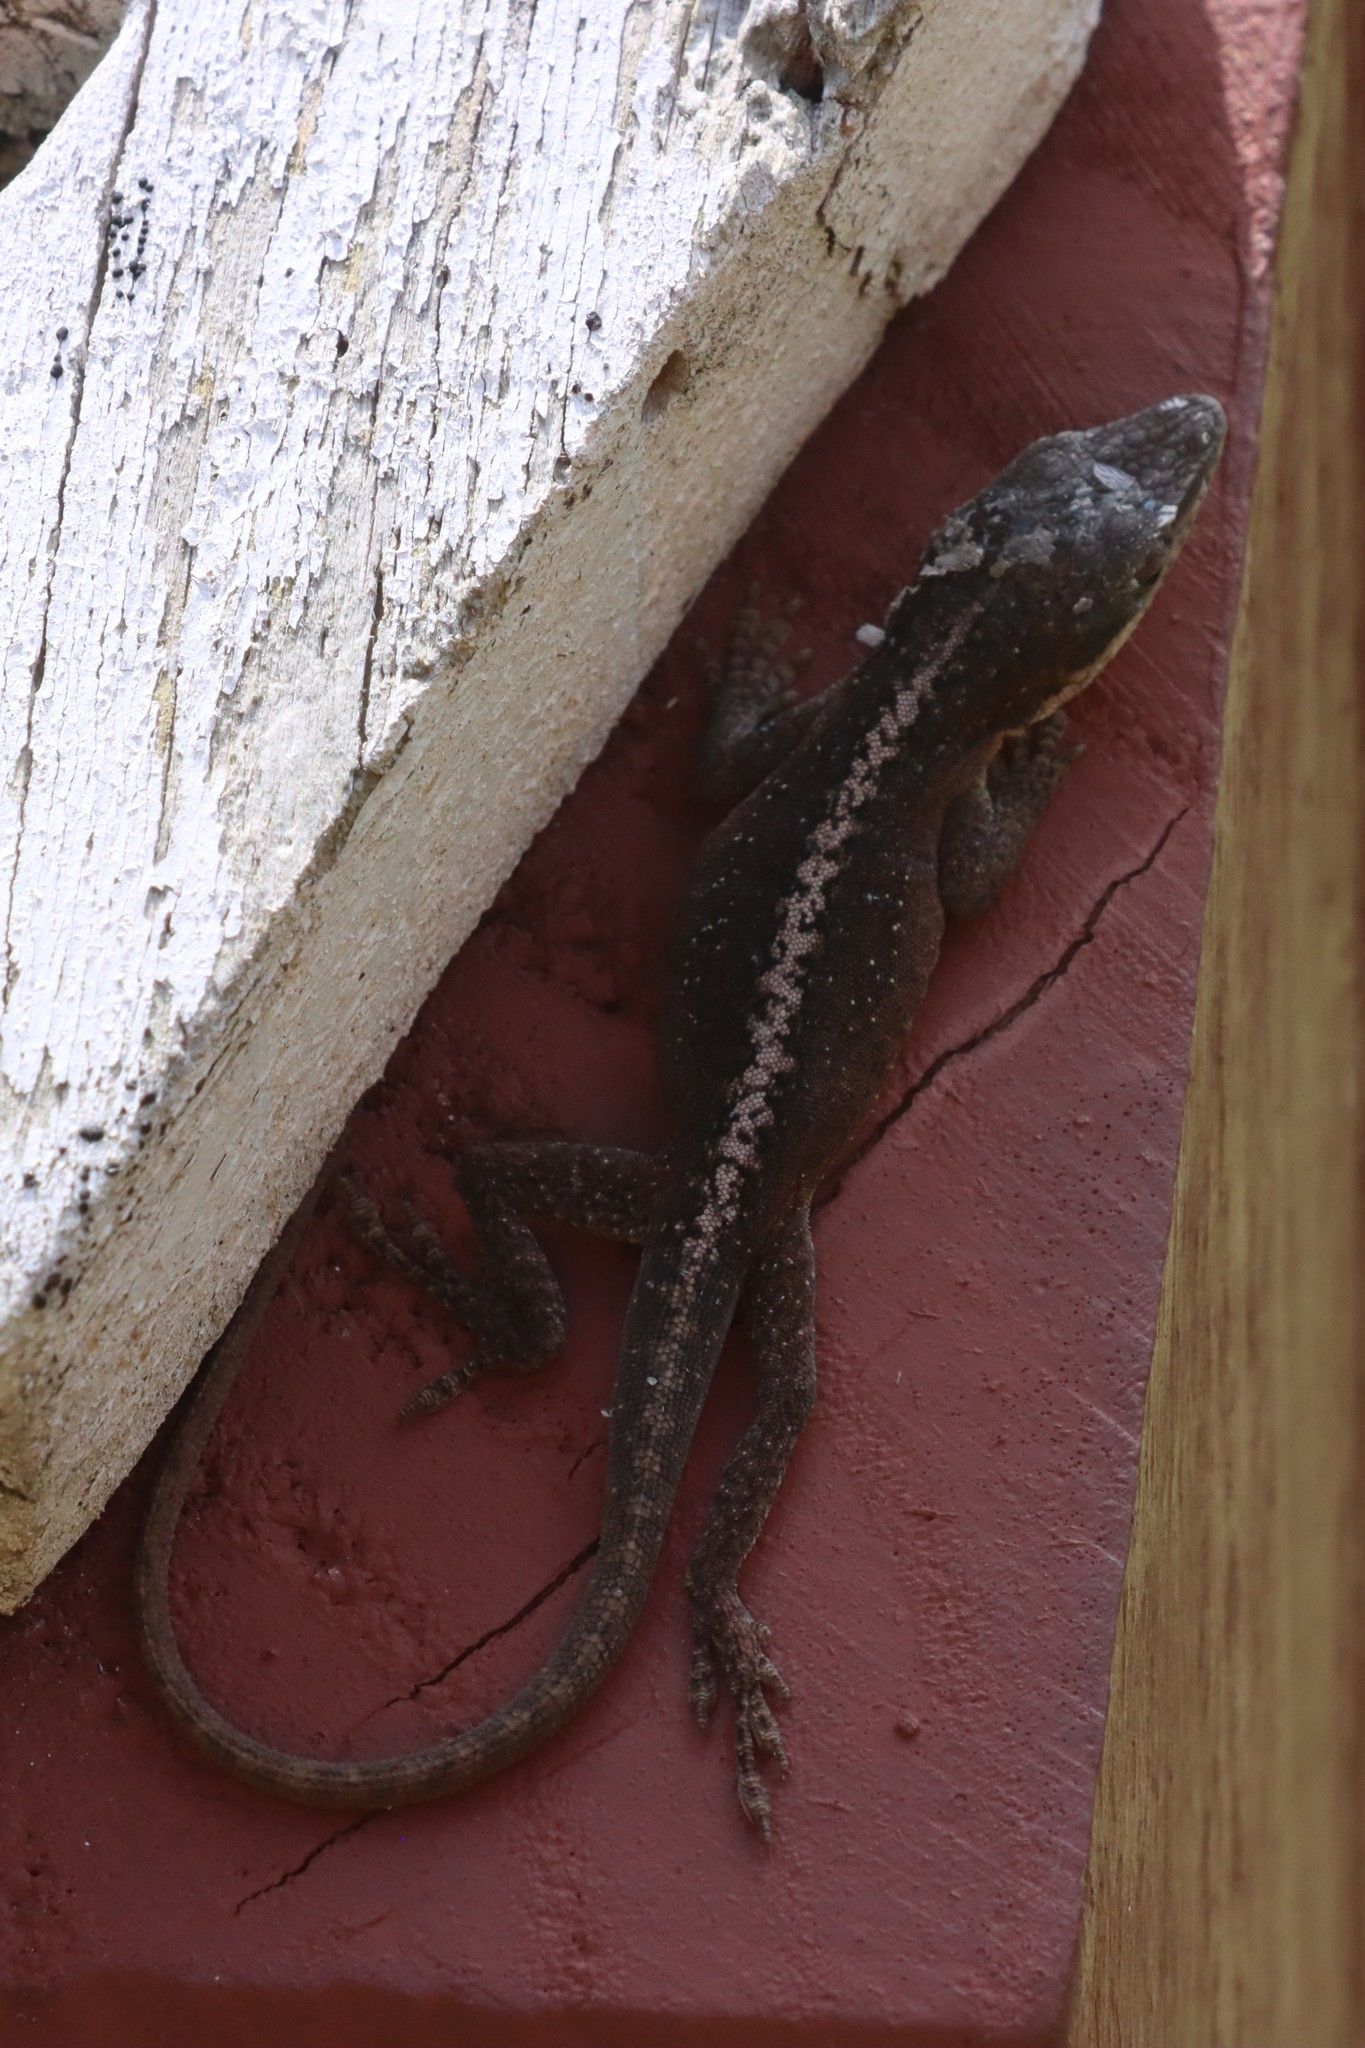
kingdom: Animalia
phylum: Chordata
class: Squamata
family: Dactyloidae
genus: Anolis
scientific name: Anolis carolinensis
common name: Green anole
